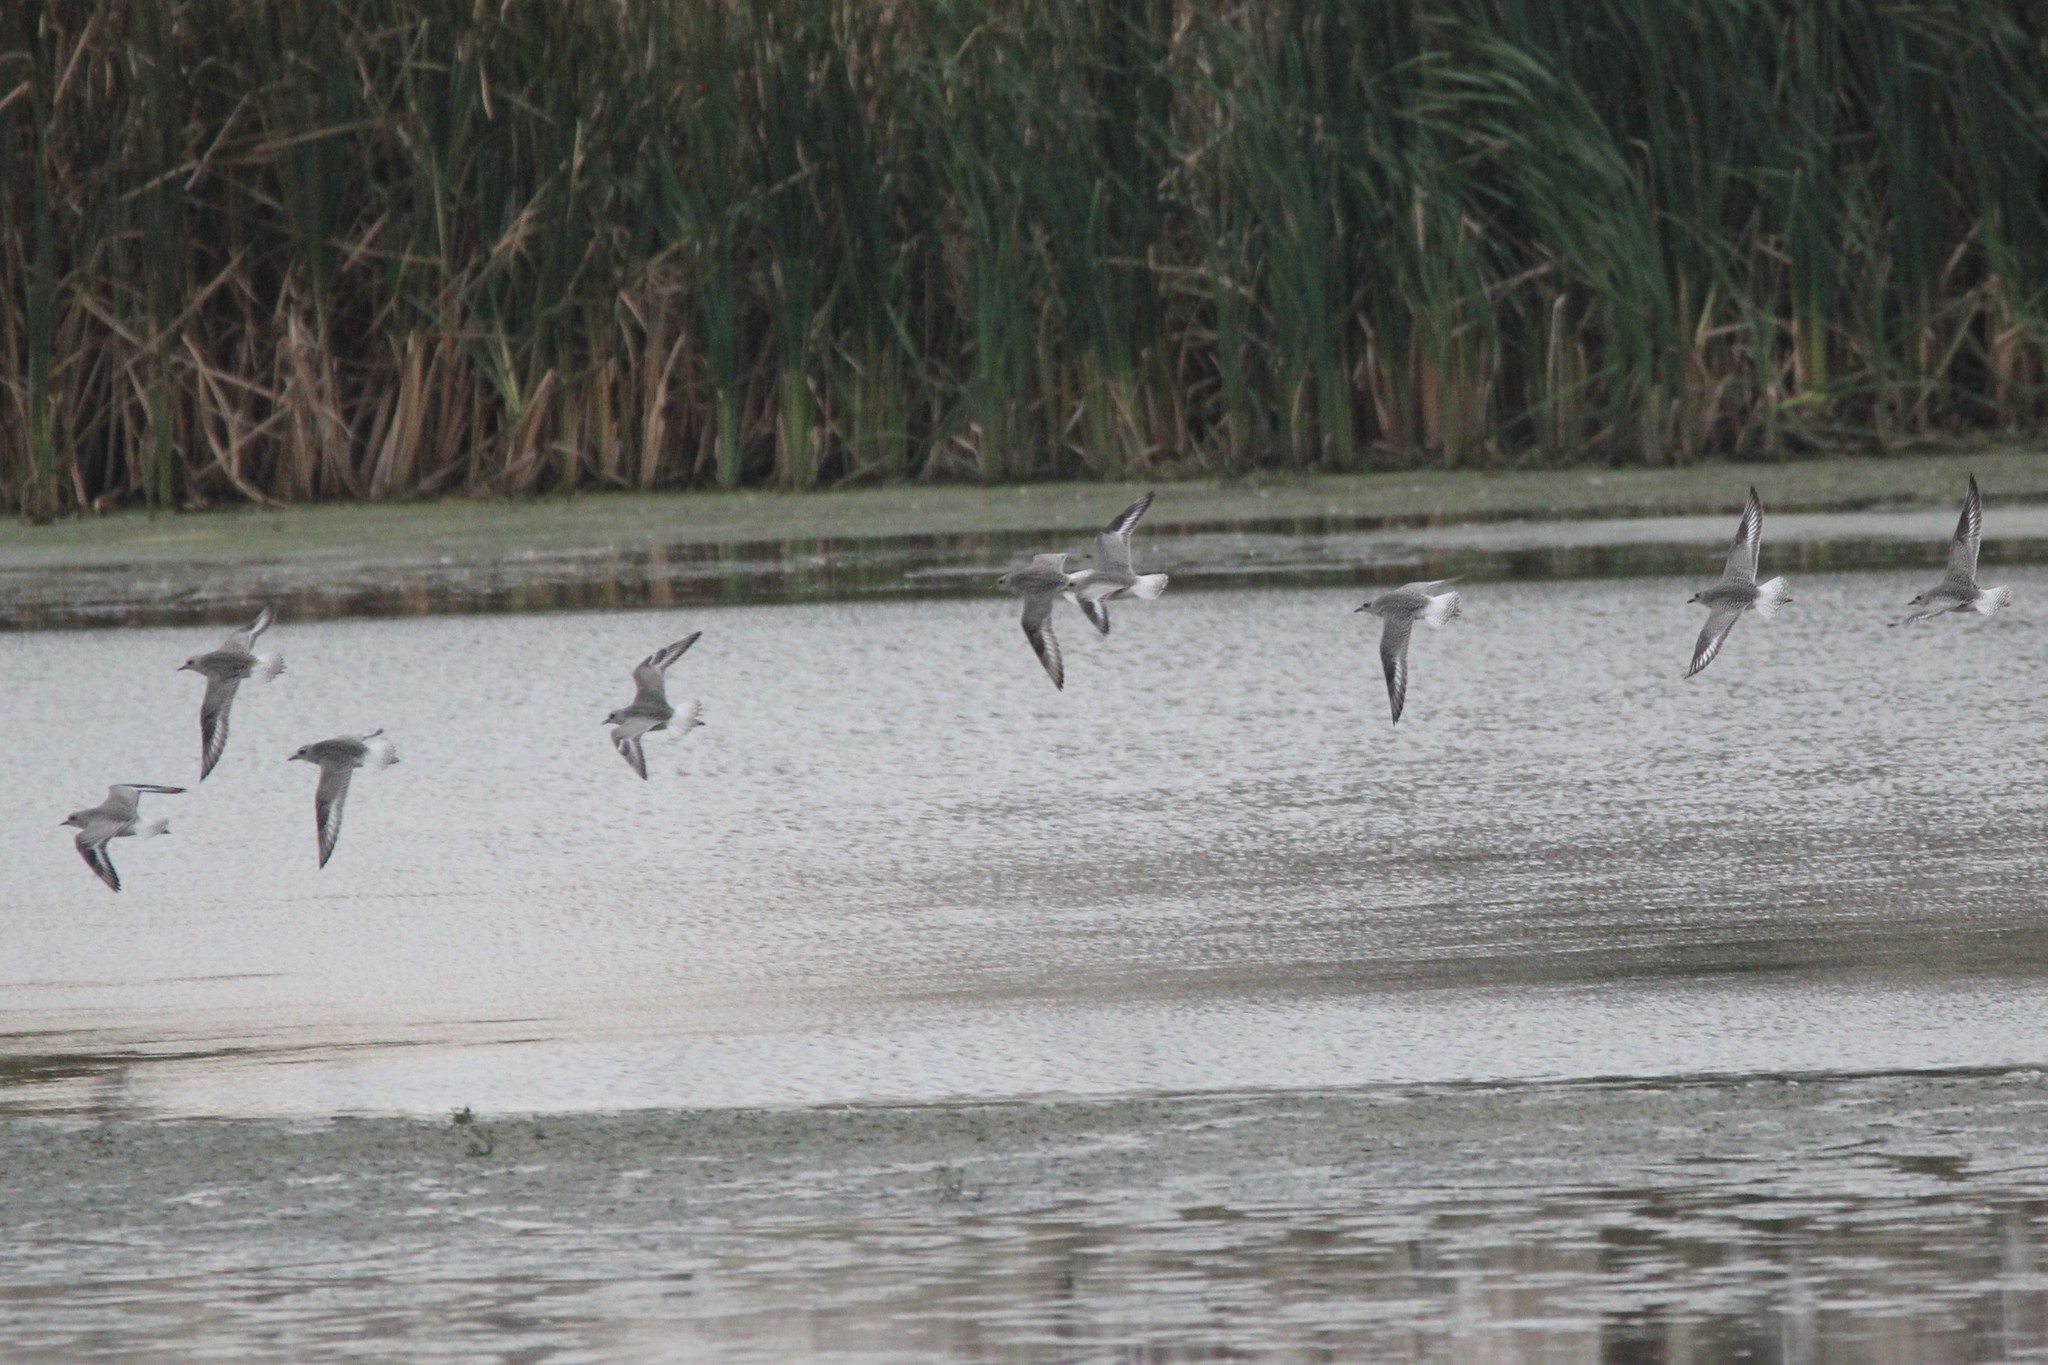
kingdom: Animalia
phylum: Chordata
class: Aves
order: Charadriiformes
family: Charadriidae
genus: Pluvialis
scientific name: Pluvialis squatarola
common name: Grey plover
